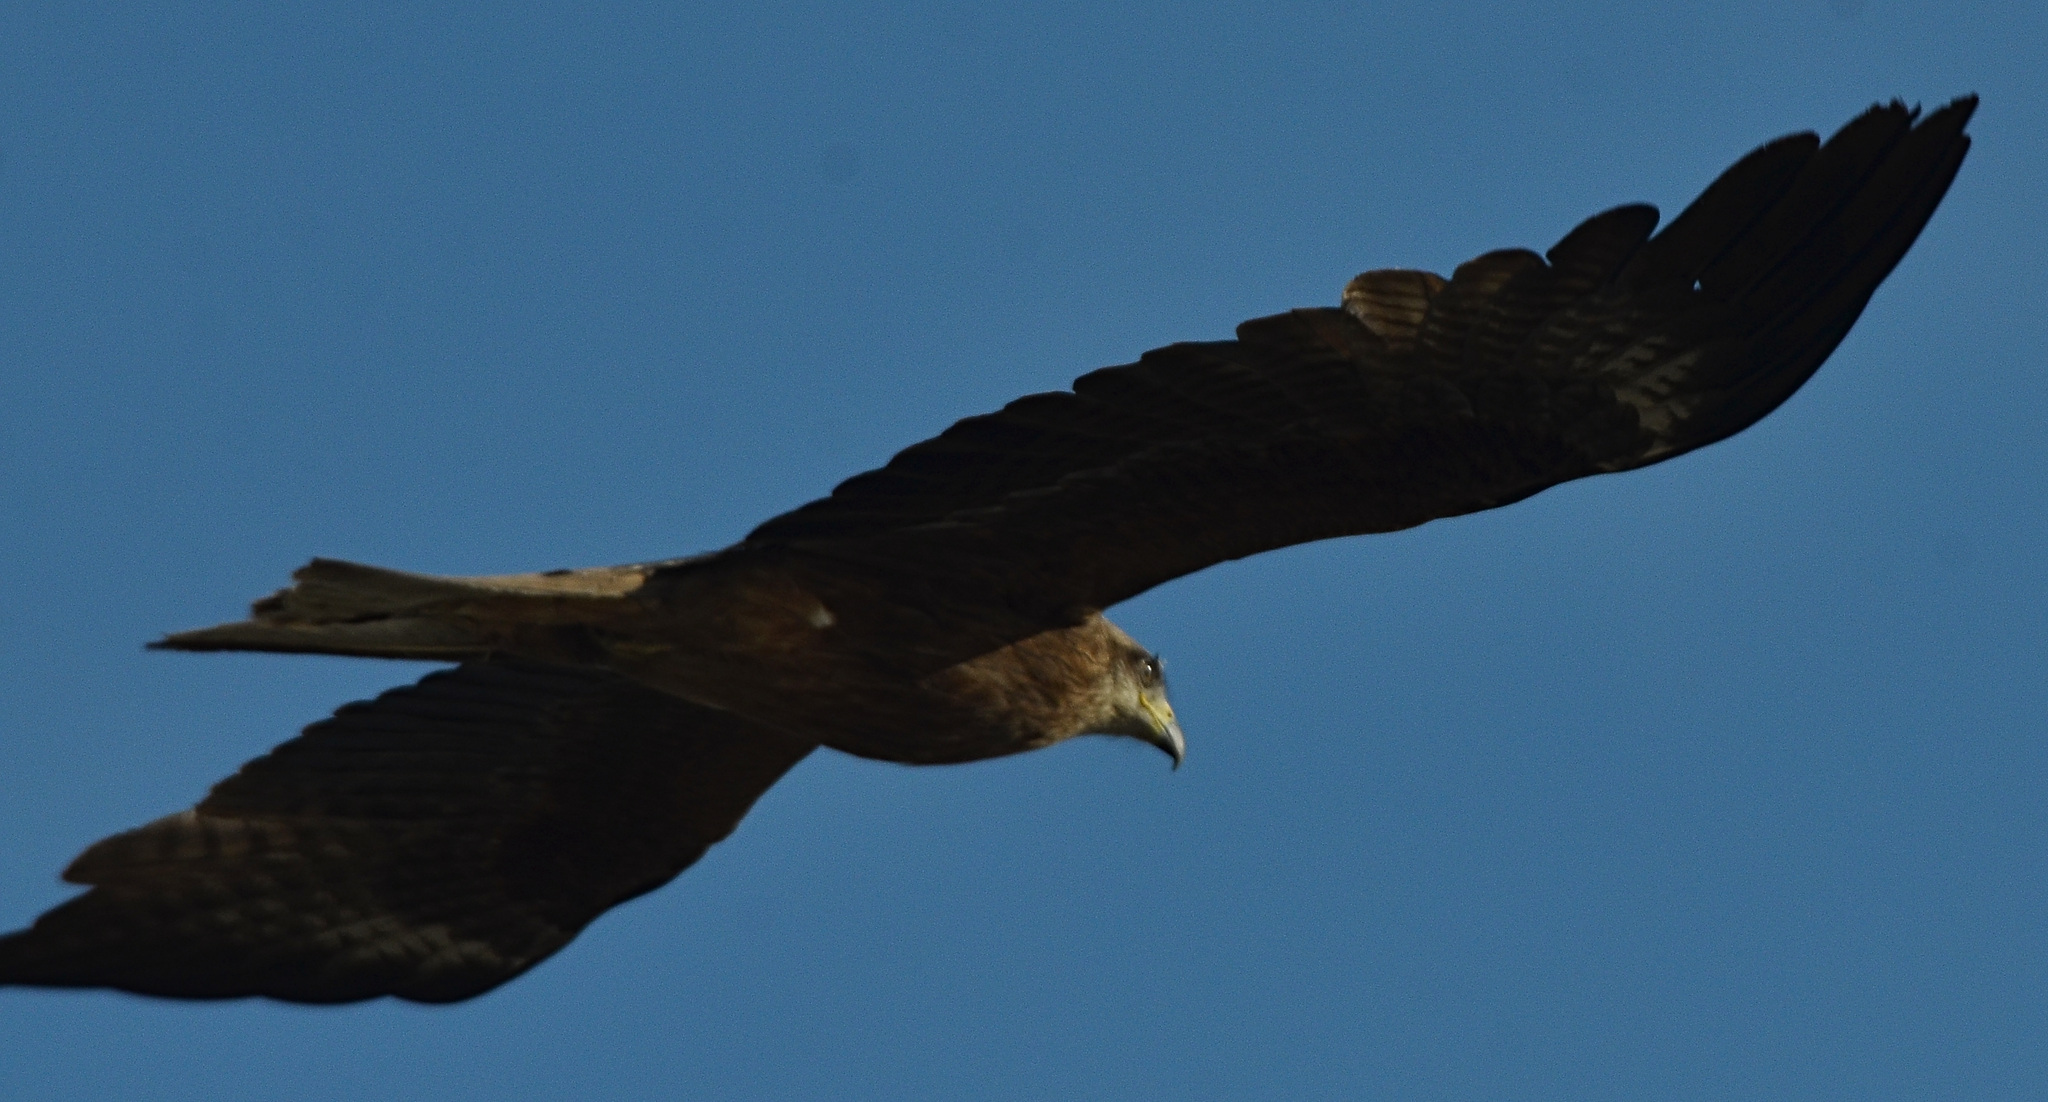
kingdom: Animalia
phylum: Chordata
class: Aves
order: Accipitriformes
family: Accipitridae
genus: Milvus
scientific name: Milvus migrans
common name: Black kite
